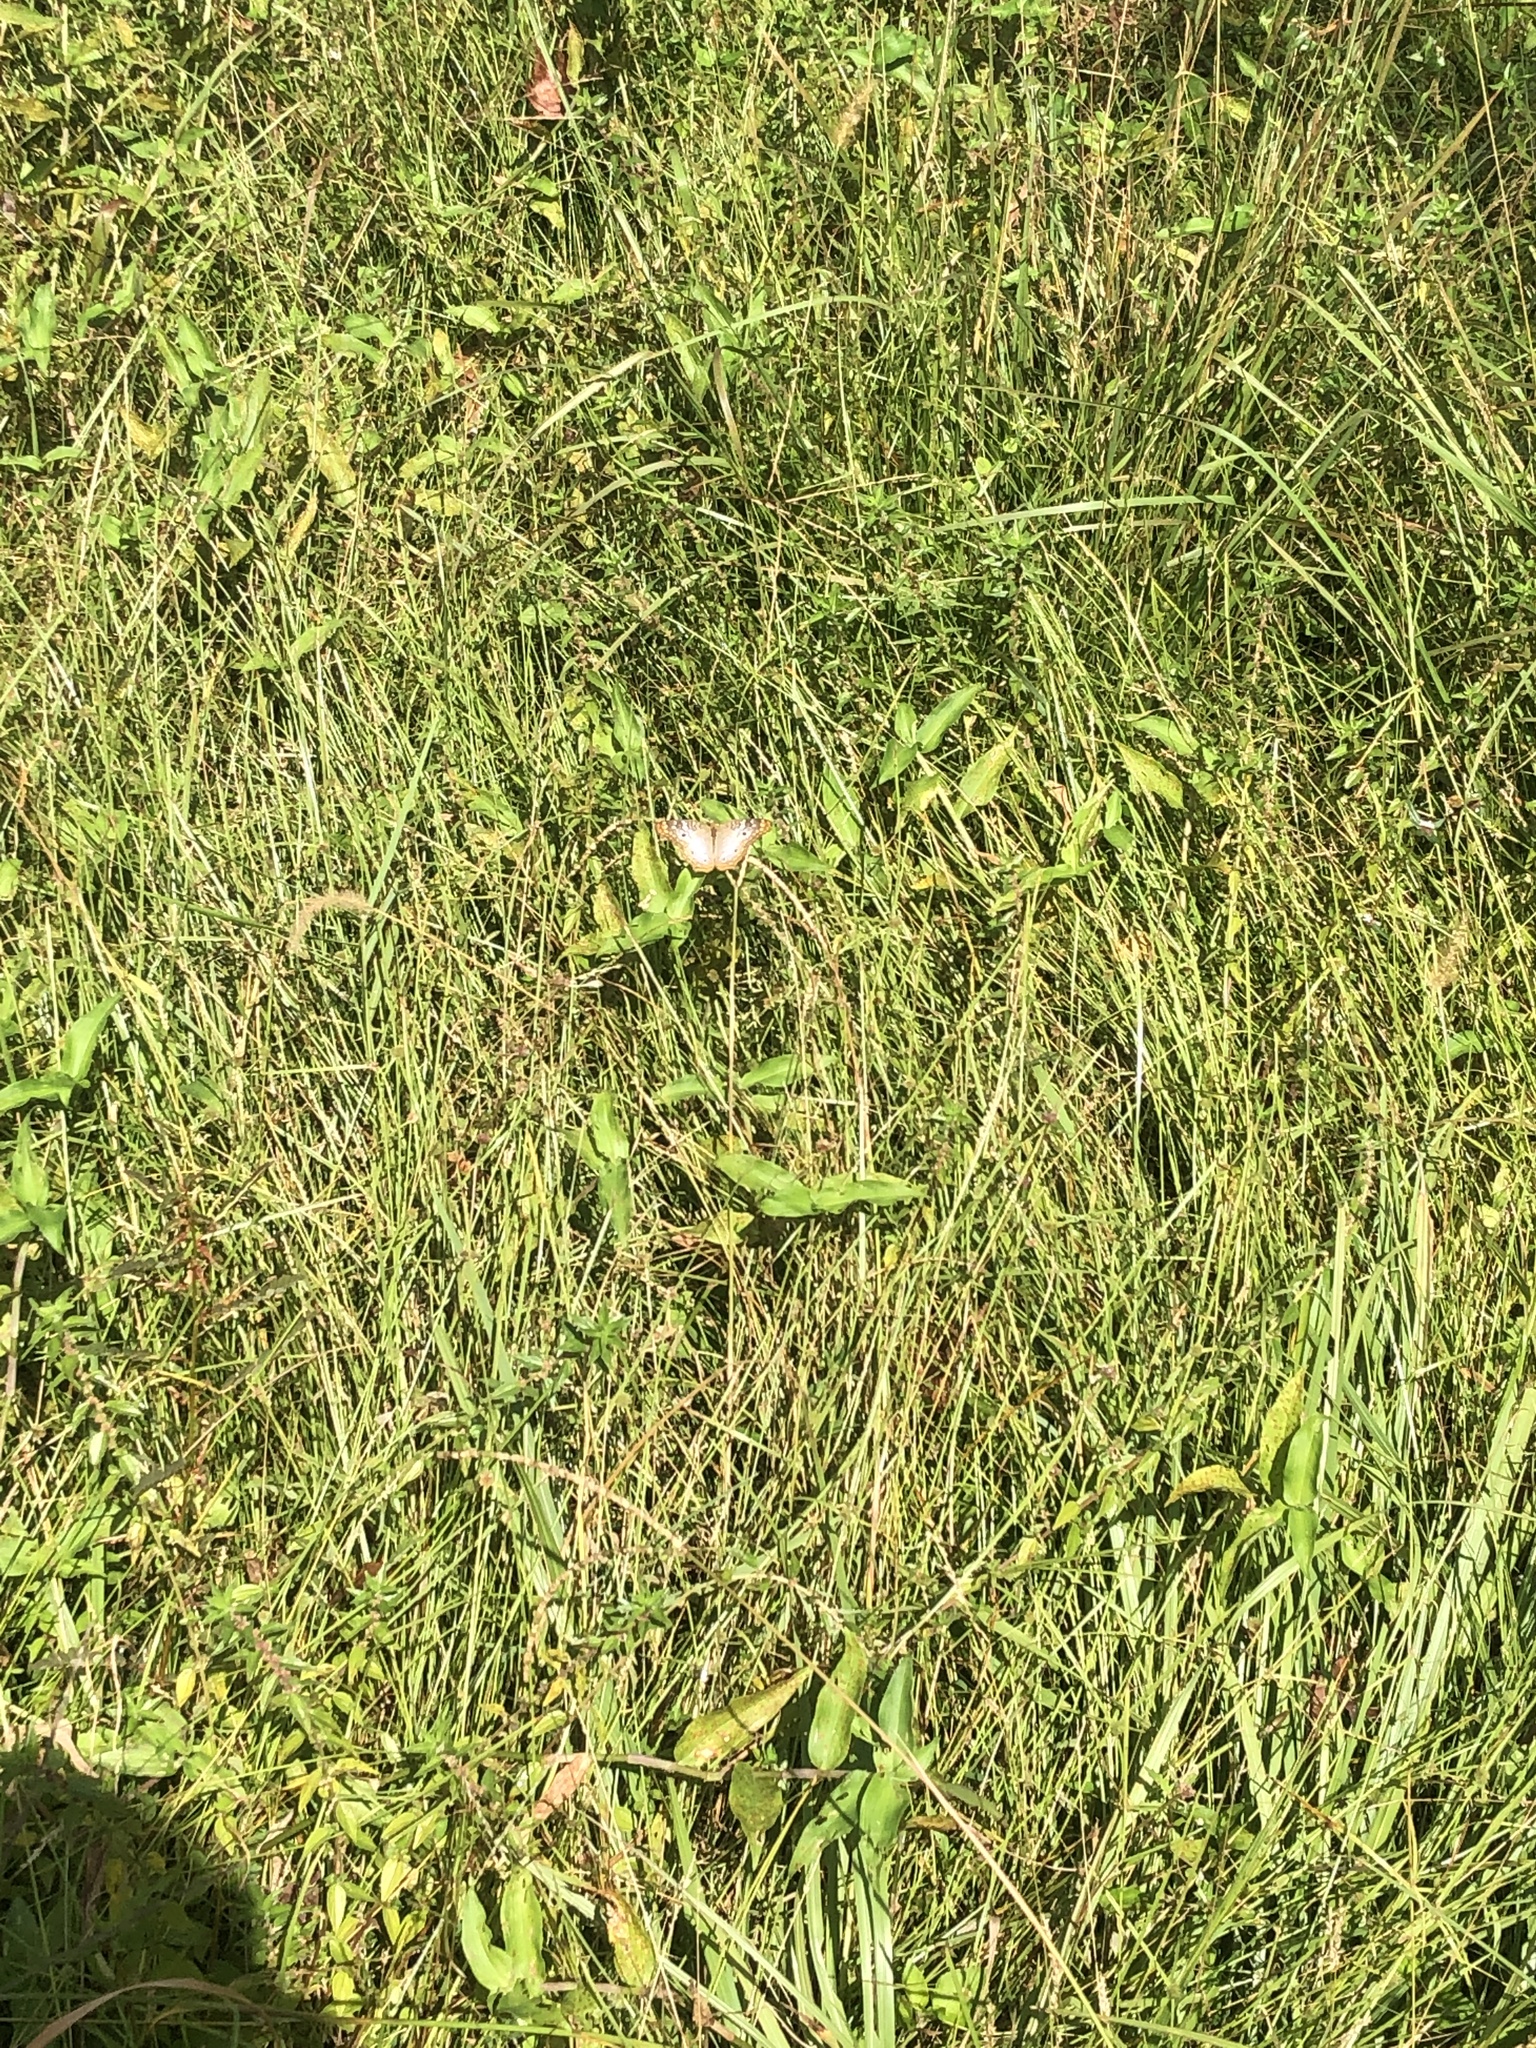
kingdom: Animalia
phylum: Arthropoda
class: Insecta
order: Lepidoptera
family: Nymphalidae
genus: Anartia
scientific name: Anartia jatrophae
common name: White peacock
